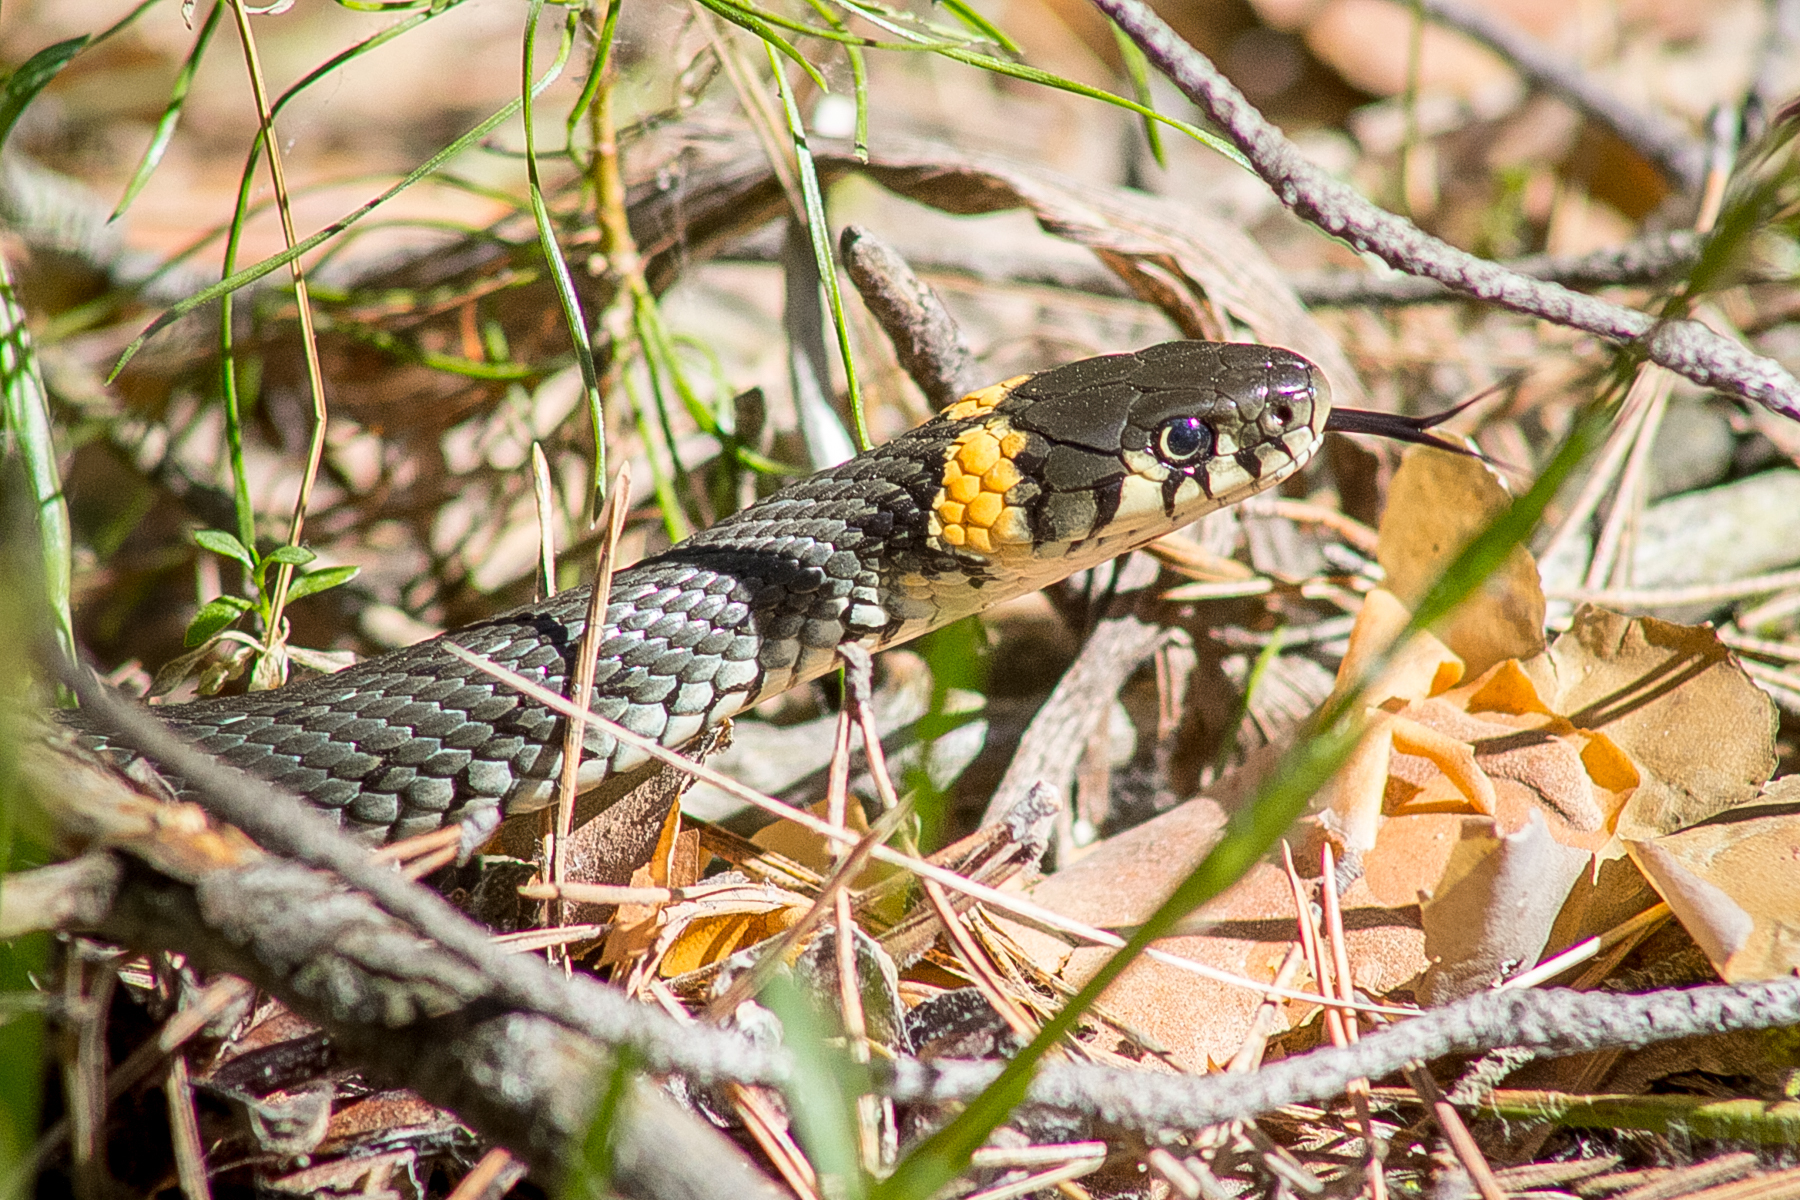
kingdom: Animalia
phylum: Chordata
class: Squamata
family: Colubridae
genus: Natrix
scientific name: Natrix natrix
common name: Grass snake
